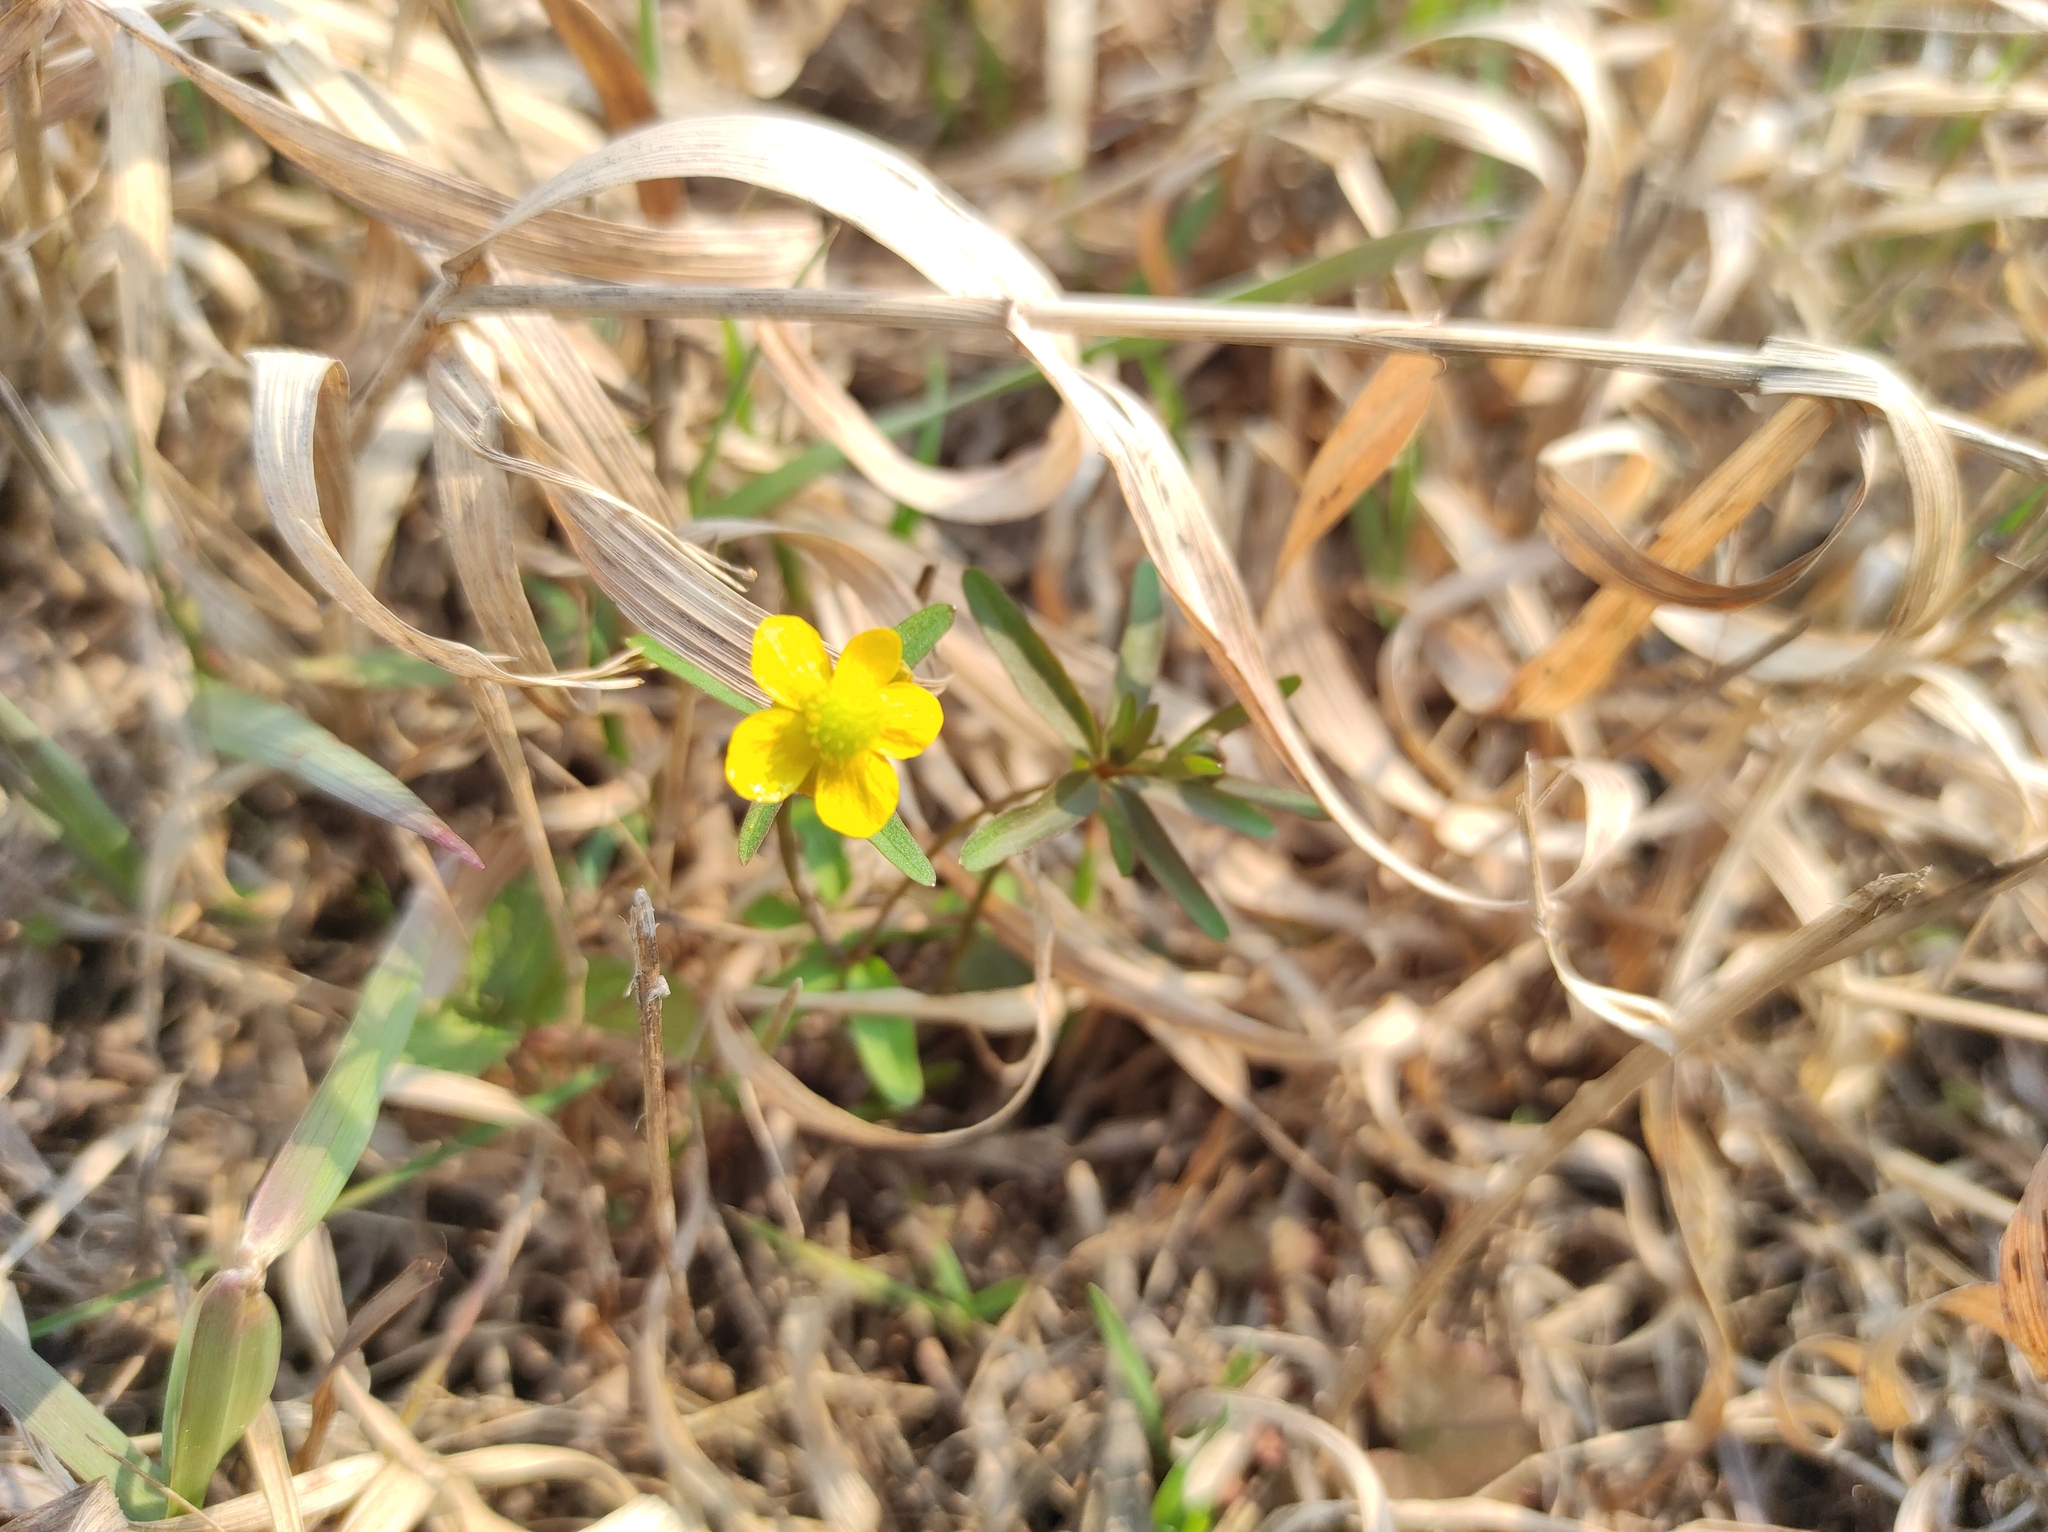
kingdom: Plantae
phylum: Tracheophyta
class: Magnoliopsida
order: Ranunculales
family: Ranunculaceae
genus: Ranunculus
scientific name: Ranunculus monophyllus
